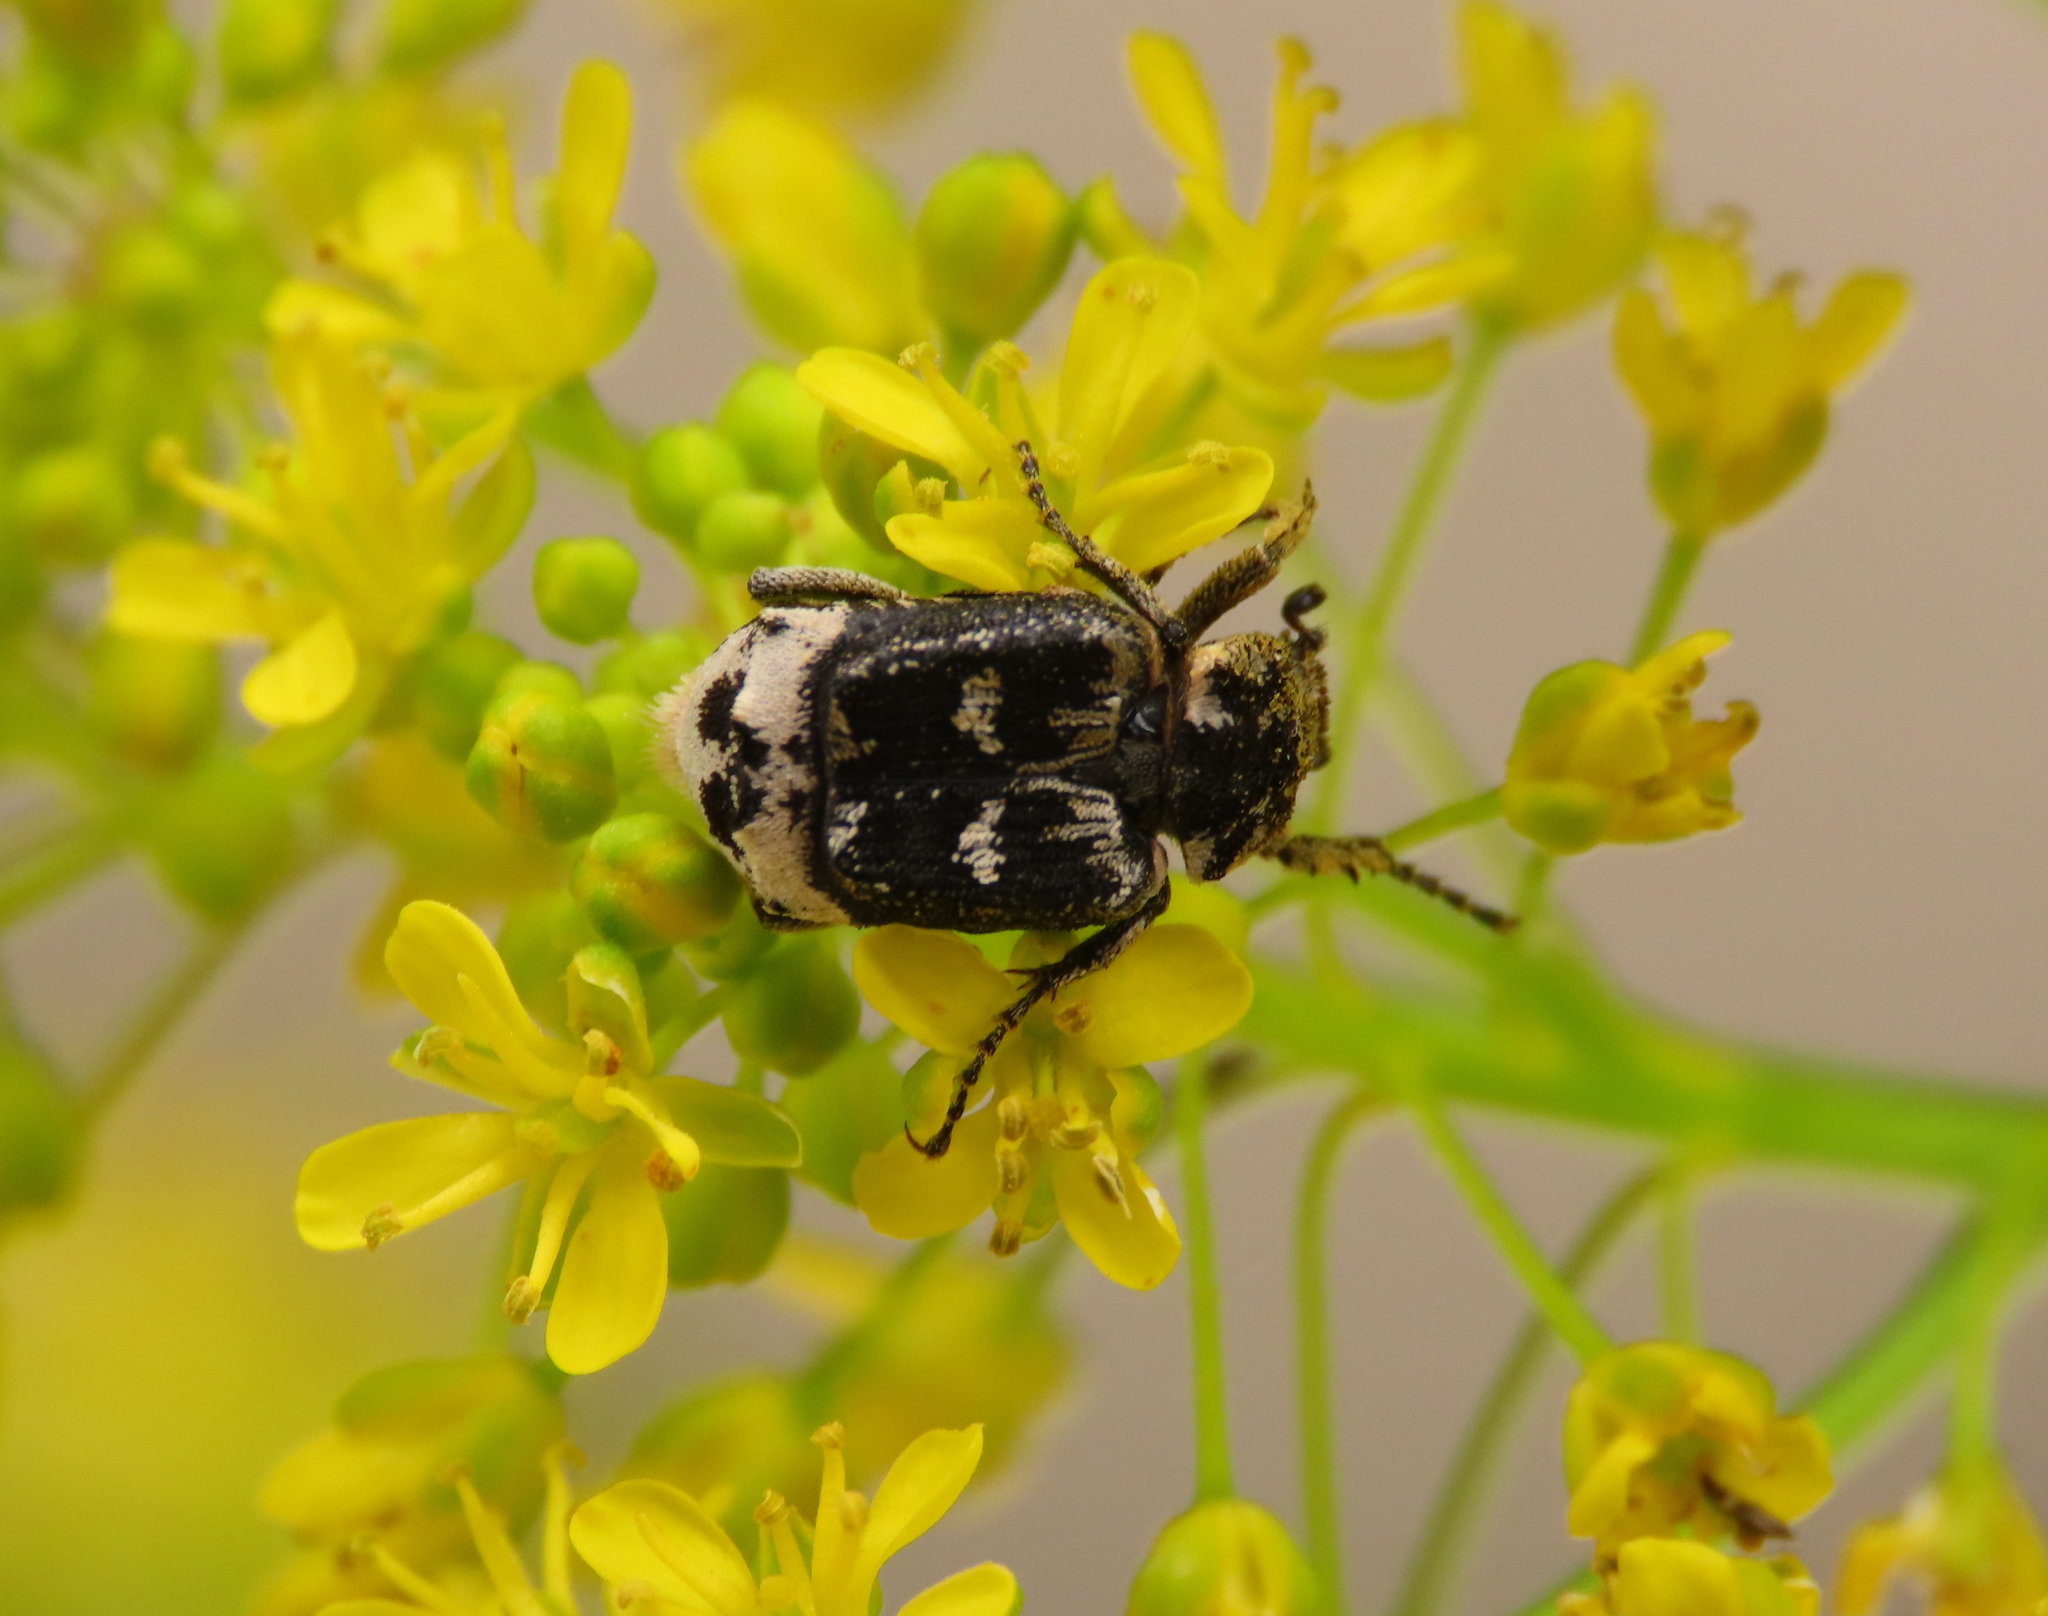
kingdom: Animalia
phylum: Arthropoda
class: Insecta
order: Coleoptera
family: Scarabaeidae
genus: Valgus
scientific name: Valgus hemipterus
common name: Bug flower chafer
